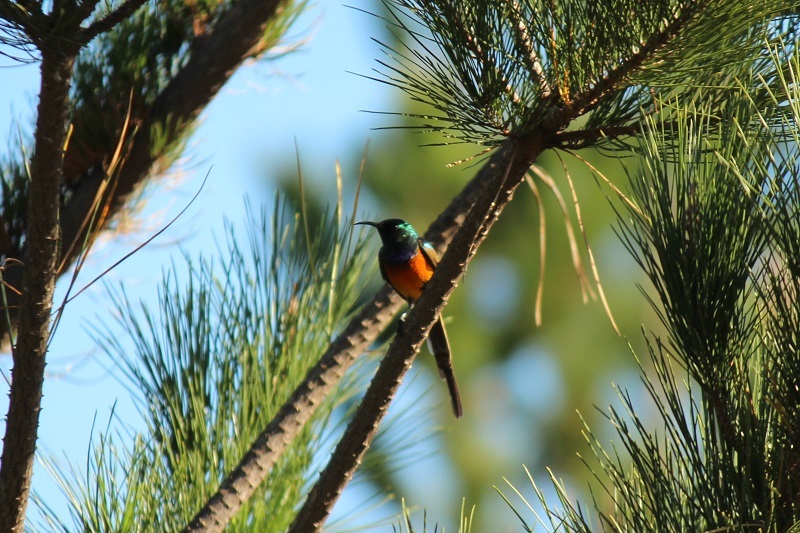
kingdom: Animalia
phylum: Chordata
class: Aves
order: Passeriformes
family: Nectariniidae
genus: Anthobaphes
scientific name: Anthobaphes violacea
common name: Orange-breasted sunbird
